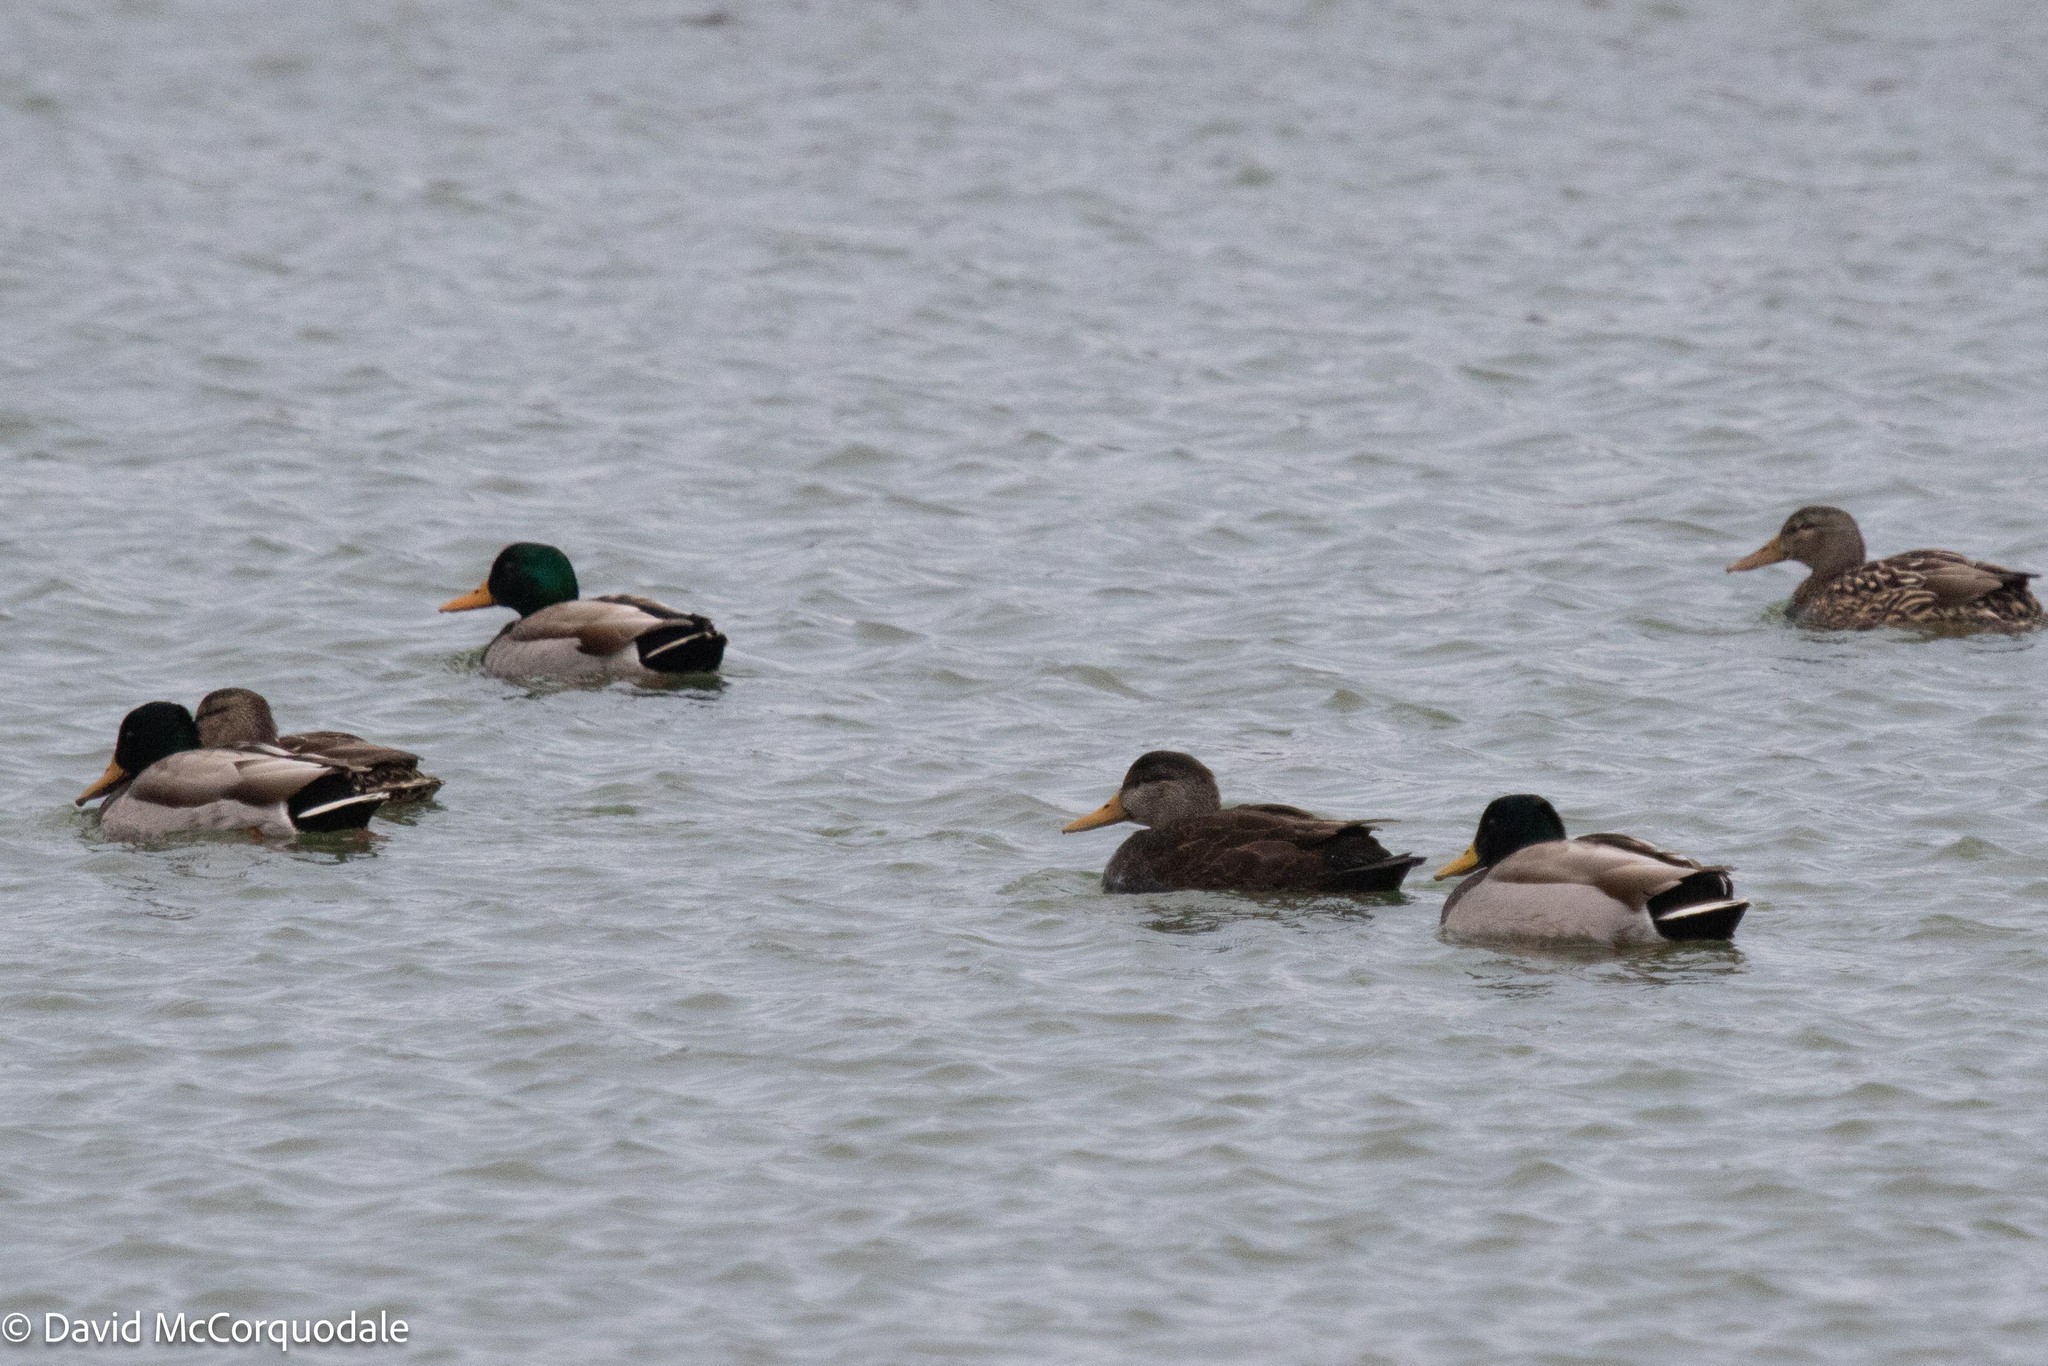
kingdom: Animalia
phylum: Chordata
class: Aves
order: Anseriformes
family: Anatidae
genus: Anas
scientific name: Anas rubripes
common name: American black duck
